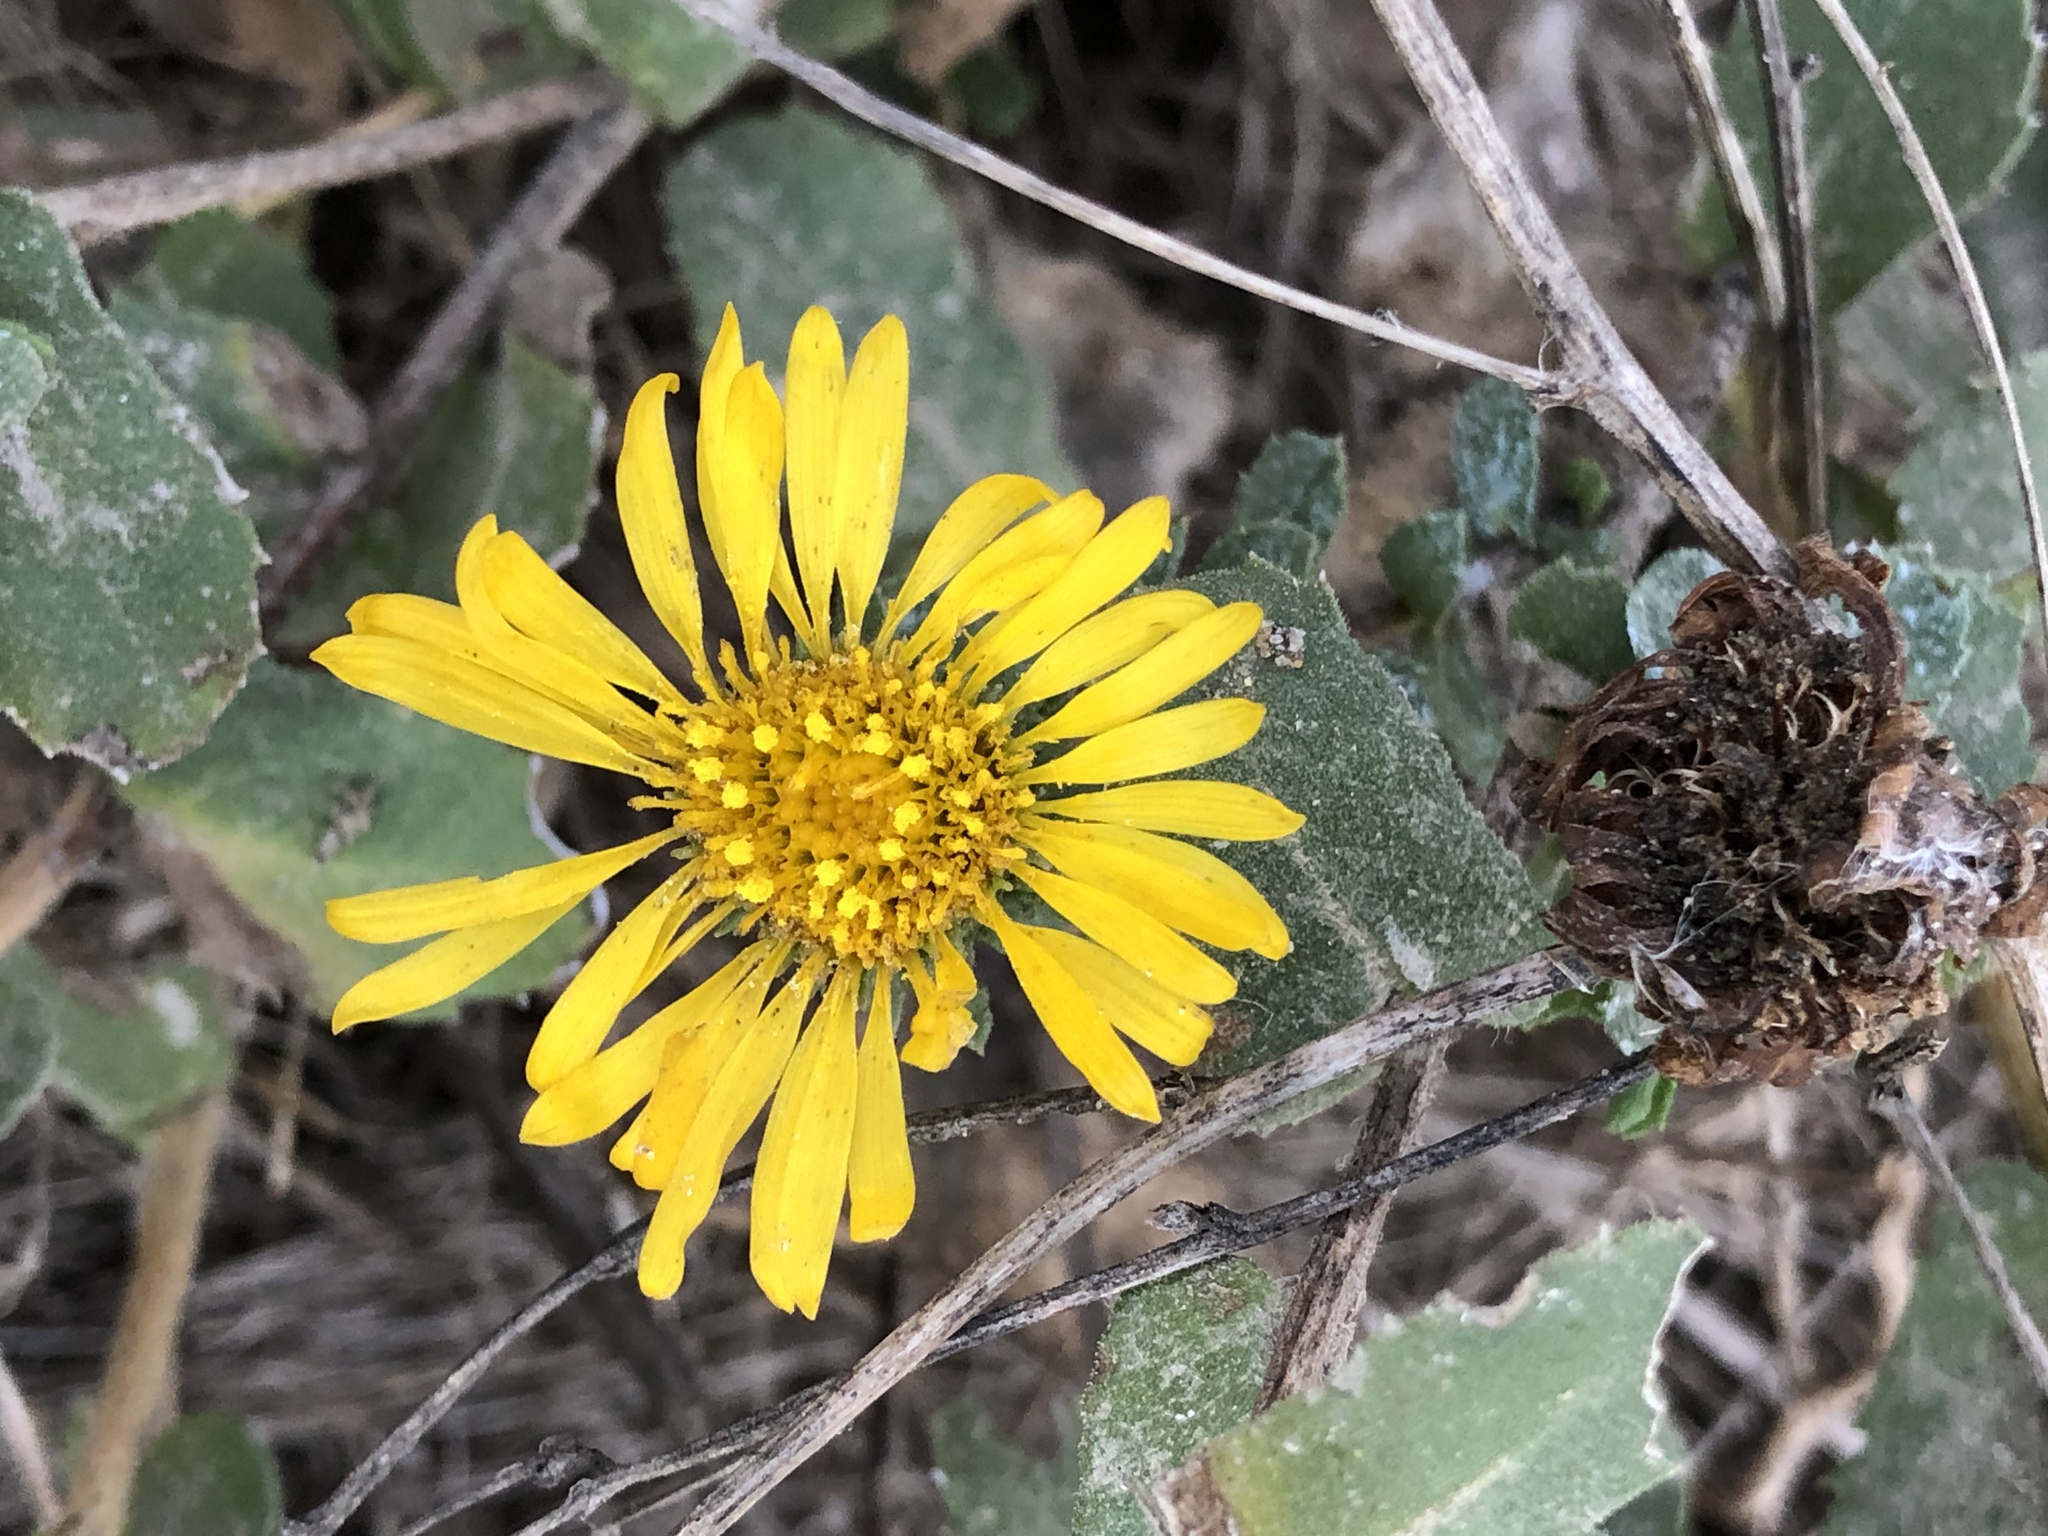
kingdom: Plantae
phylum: Tracheophyta
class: Magnoliopsida
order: Asterales
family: Asteraceae
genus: Grindelia
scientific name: Grindelia hirsutula
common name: Hairy gumweed
